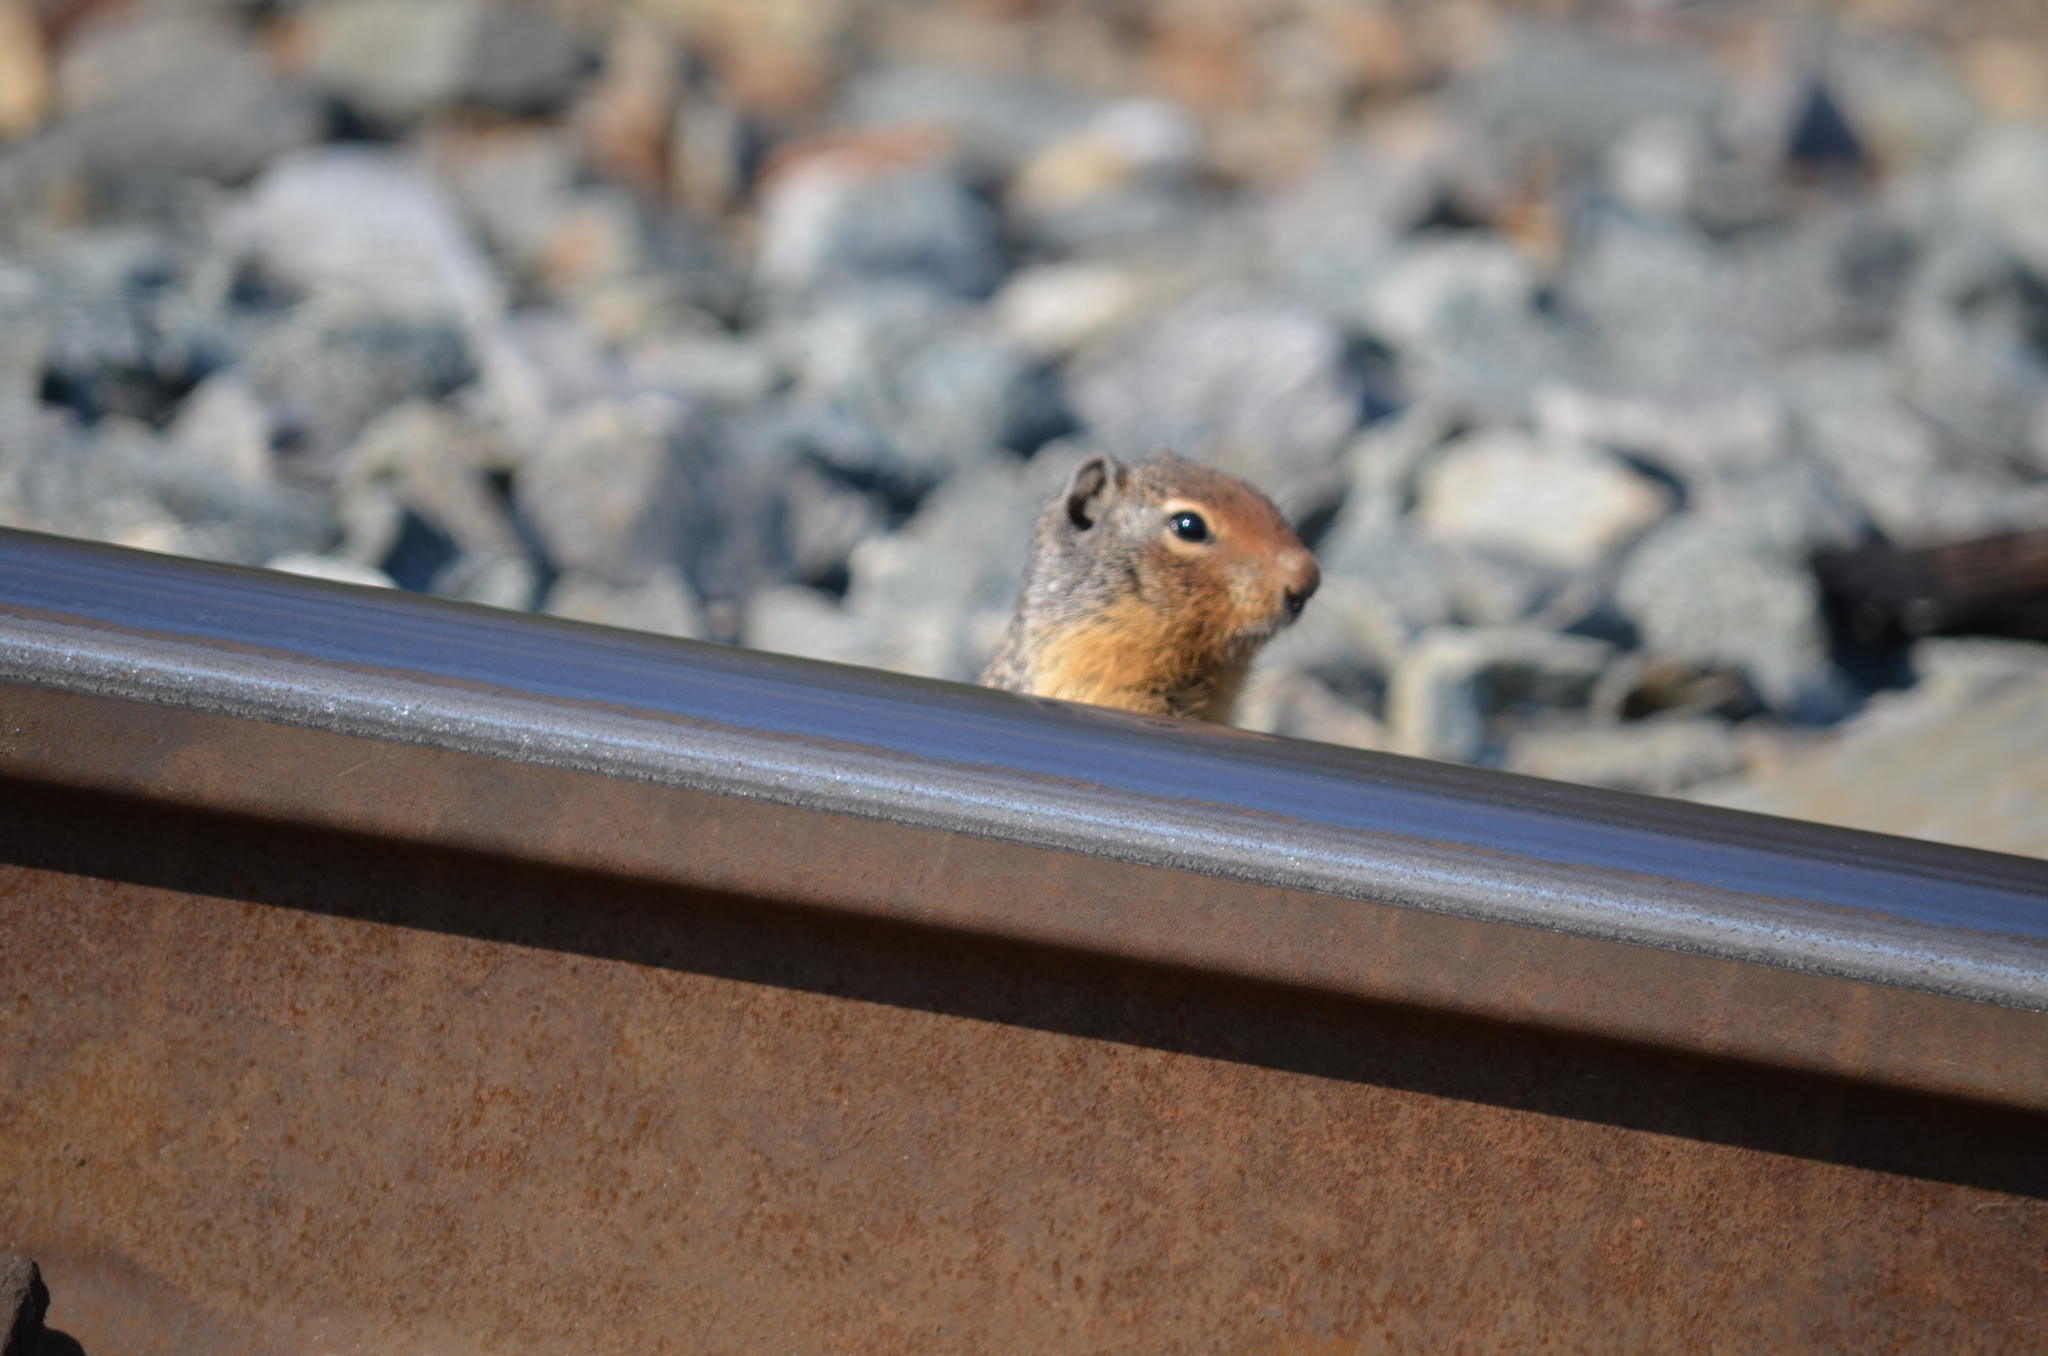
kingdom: Animalia
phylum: Chordata
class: Mammalia
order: Rodentia
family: Sciuridae
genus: Urocitellus
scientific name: Urocitellus columbianus
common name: Columbian ground squirrel
